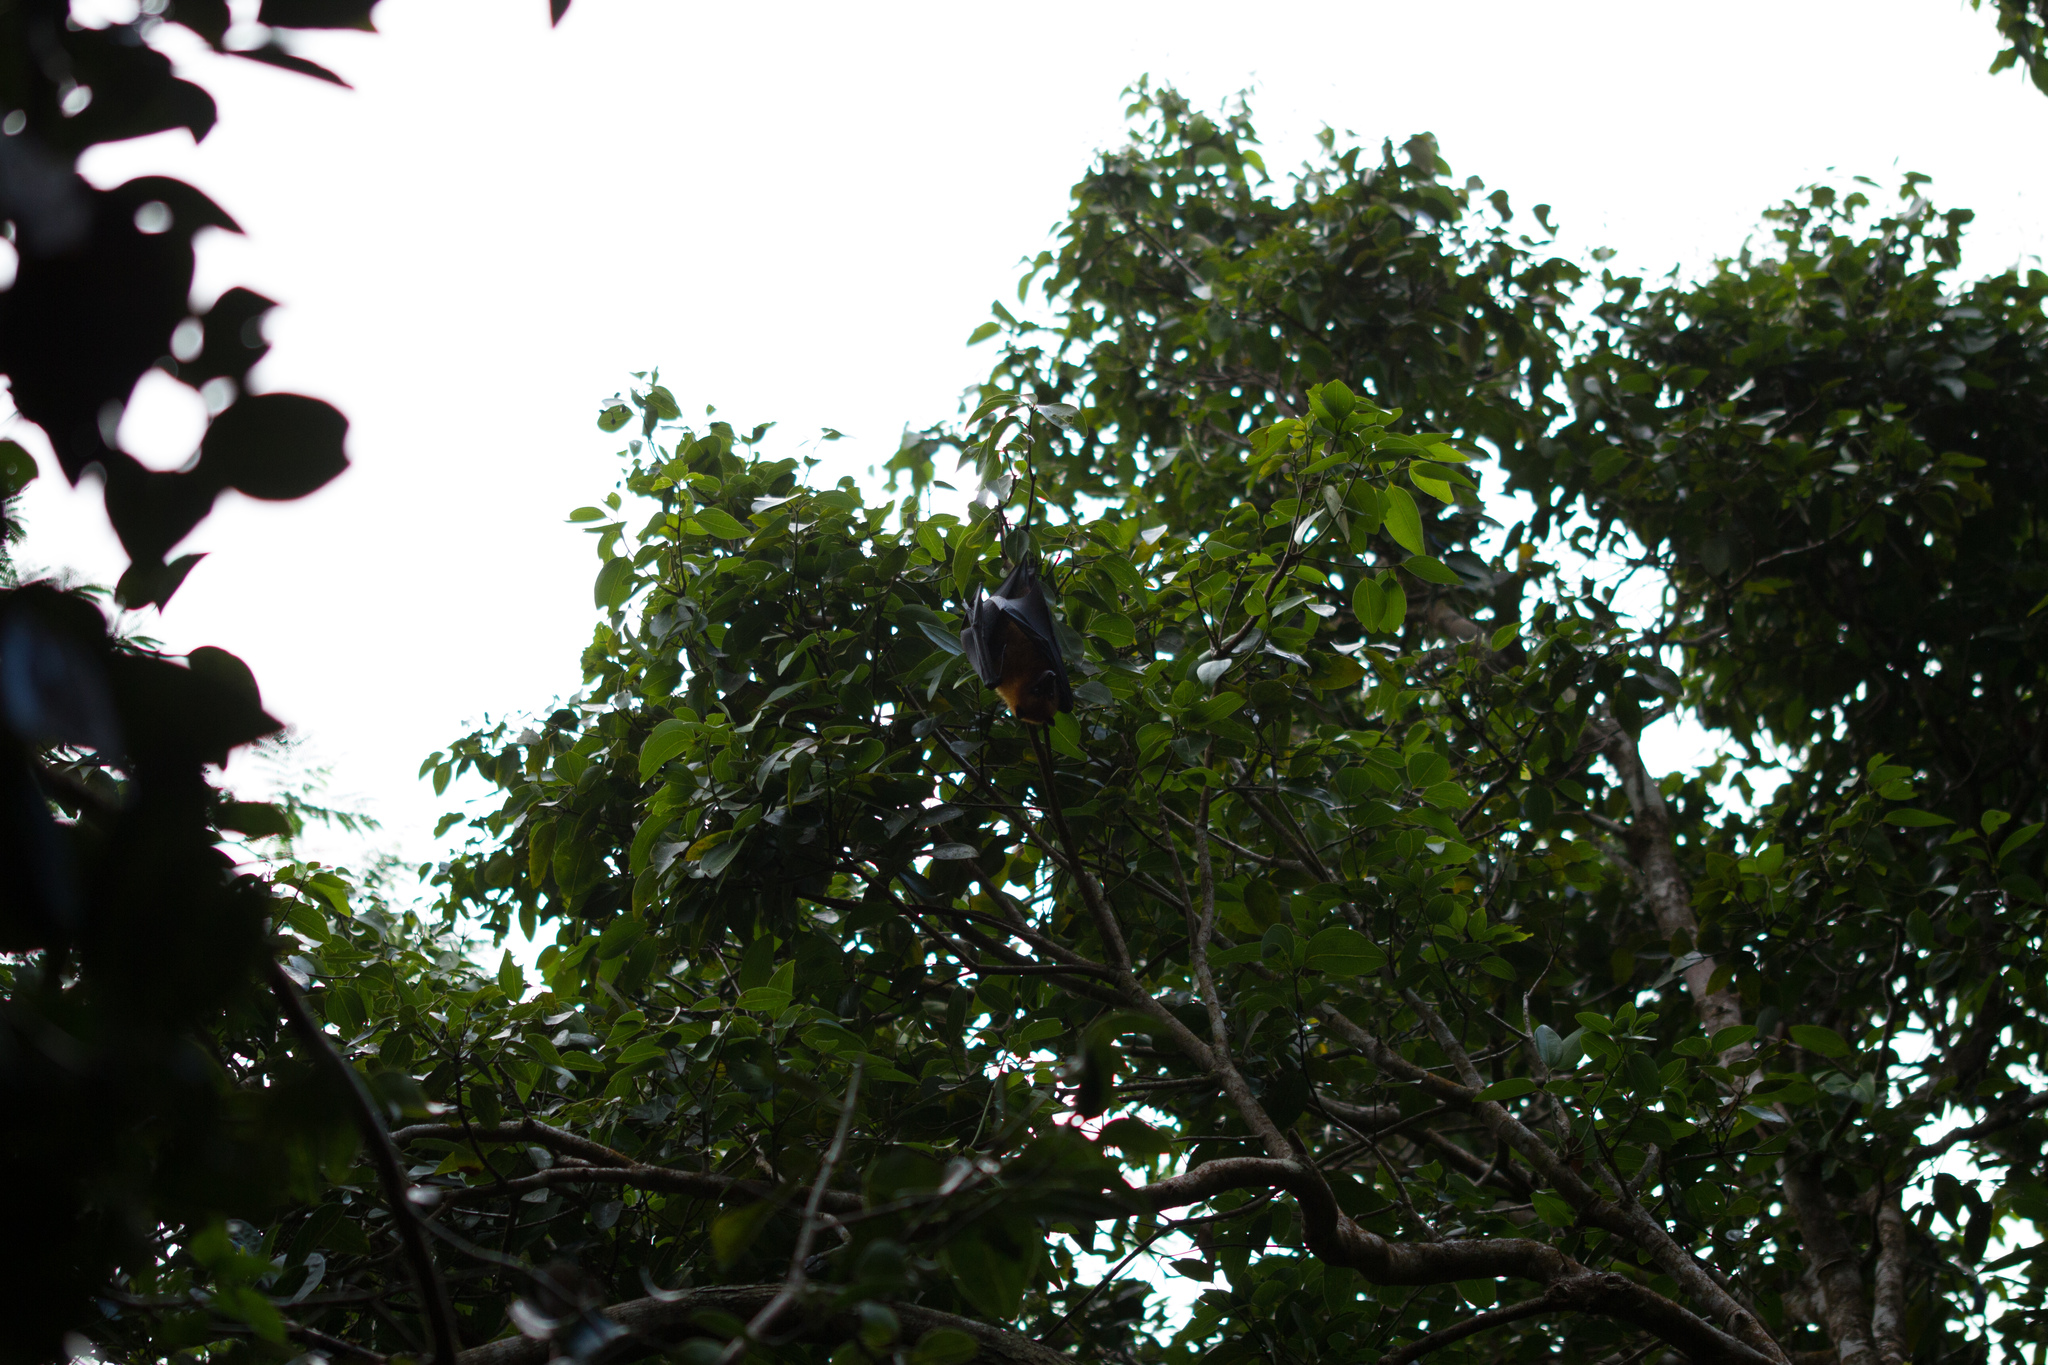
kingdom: Animalia
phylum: Chordata
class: Mammalia
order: Chiroptera
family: Pteropodidae
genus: Pteropus
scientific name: Pteropus seychellensis
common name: Seychelles flying fox
